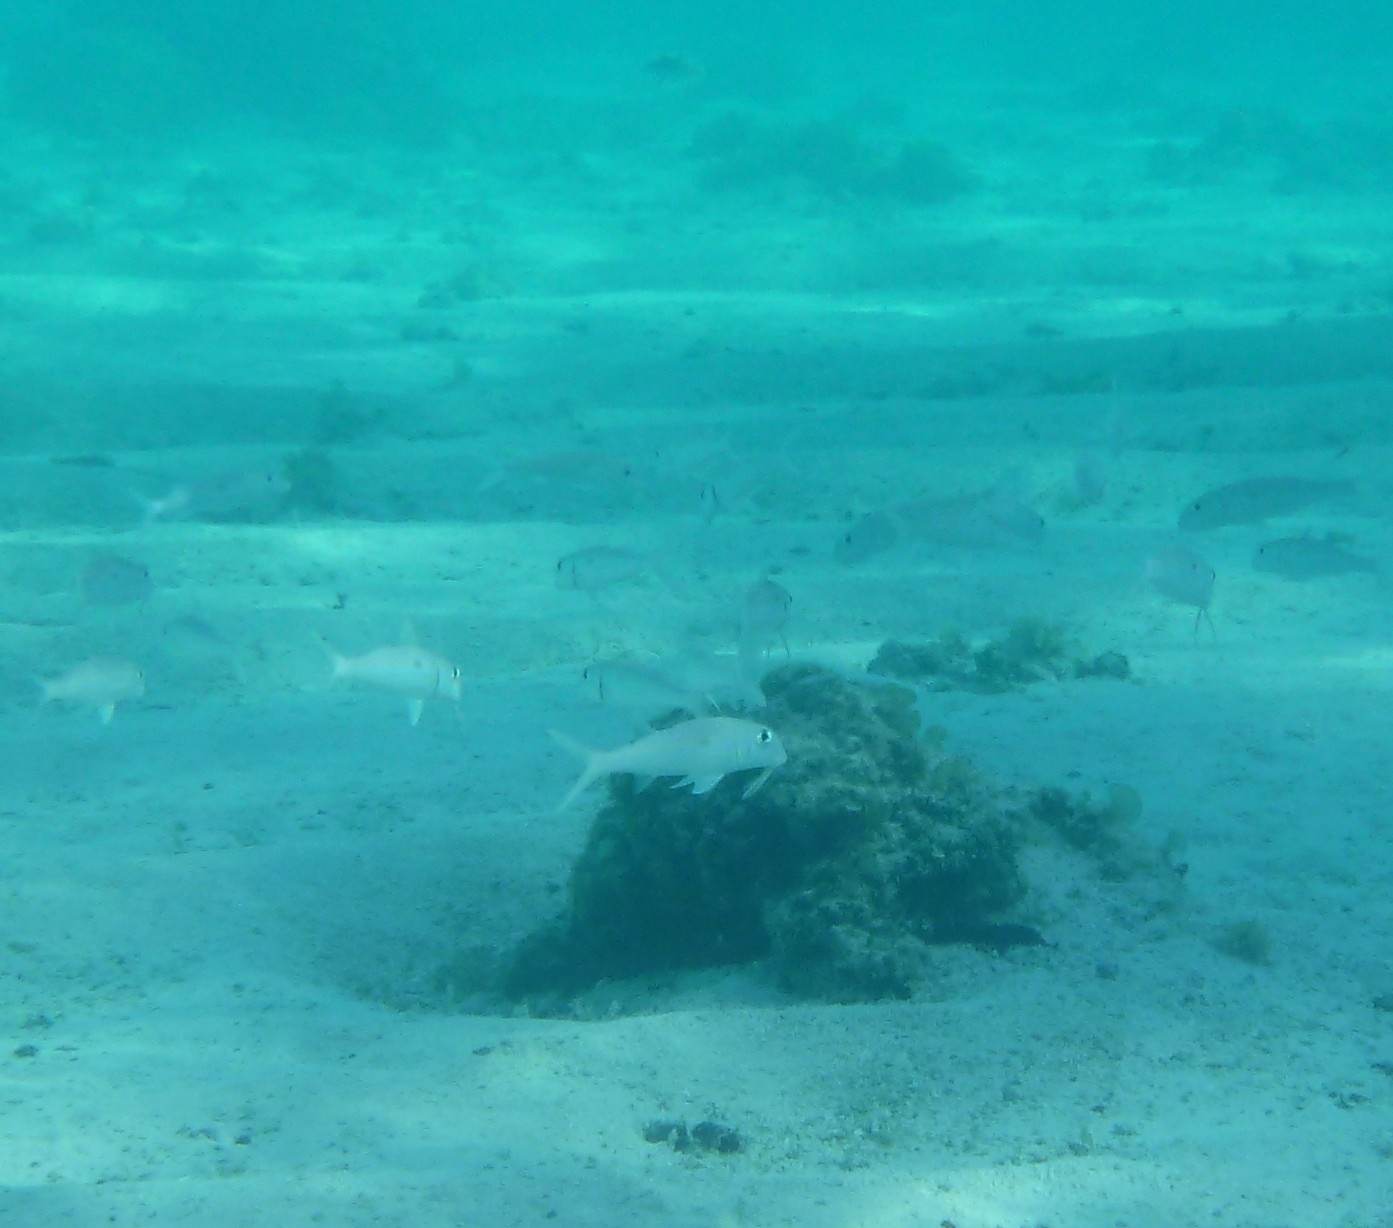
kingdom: Animalia
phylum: Chordata
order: Perciformes
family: Mullidae
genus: Mulloidichthys
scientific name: Mulloidichthys flavolineatus
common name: Yellowstripe goatfish
